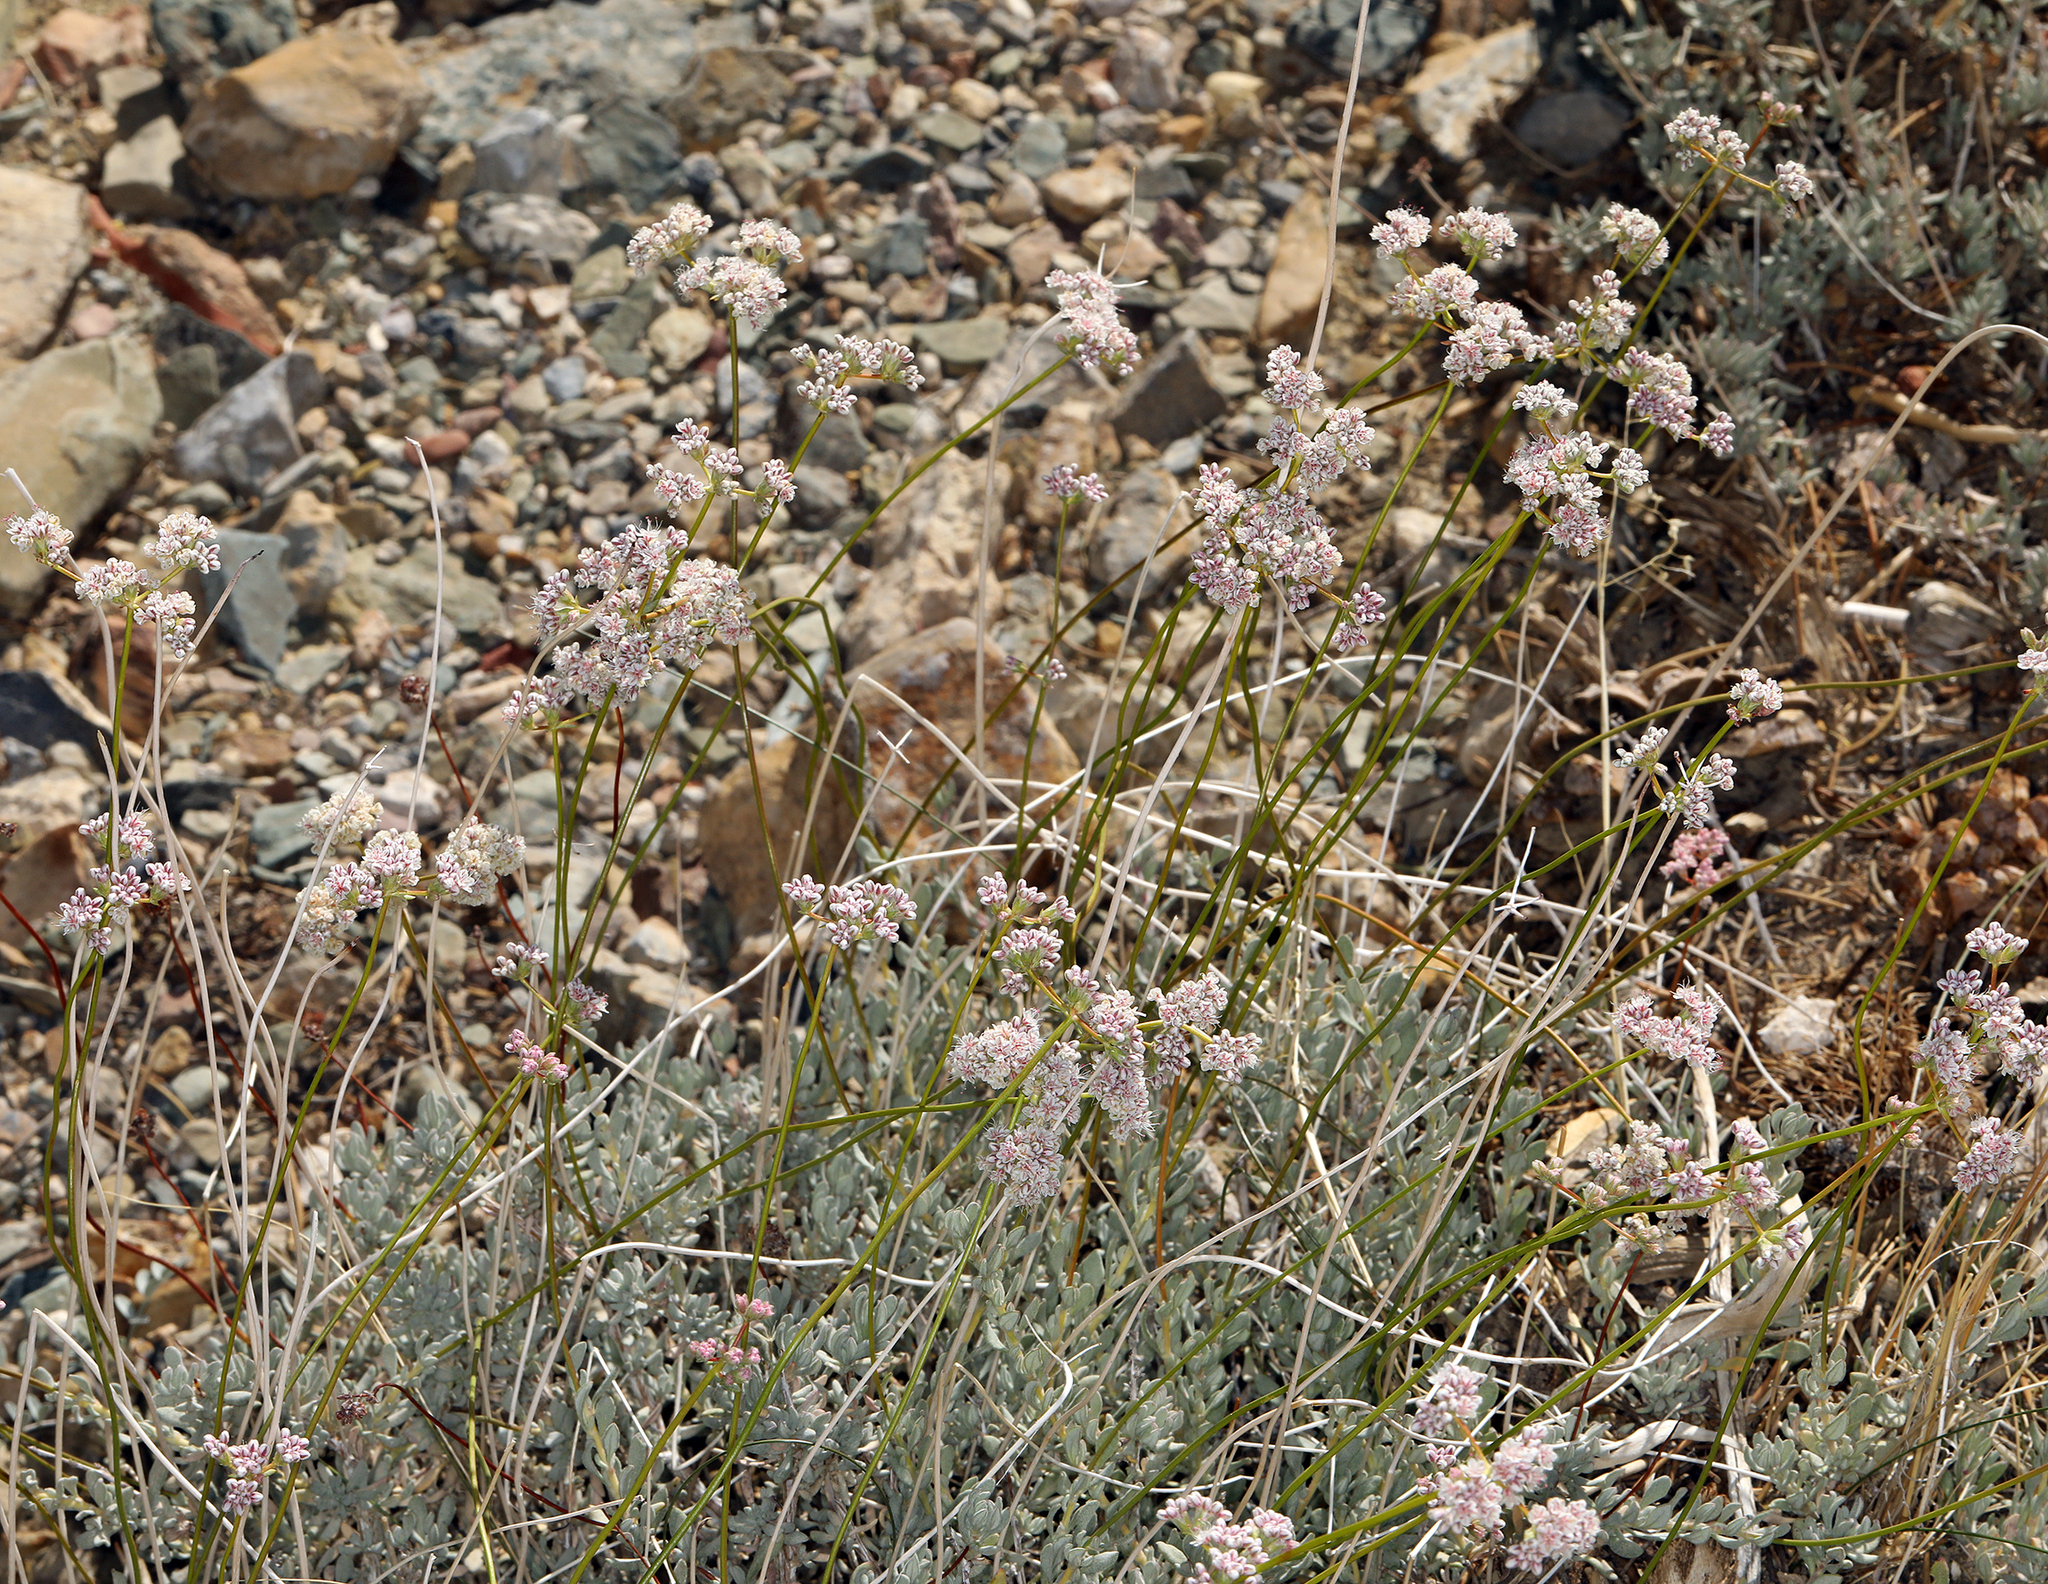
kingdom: Plantae
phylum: Tracheophyta
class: Magnoliopsida
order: Caryophyllales
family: Polygonaceae
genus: Eriogonum
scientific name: Eriogonum fasciculatum
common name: California wild buckwheat
